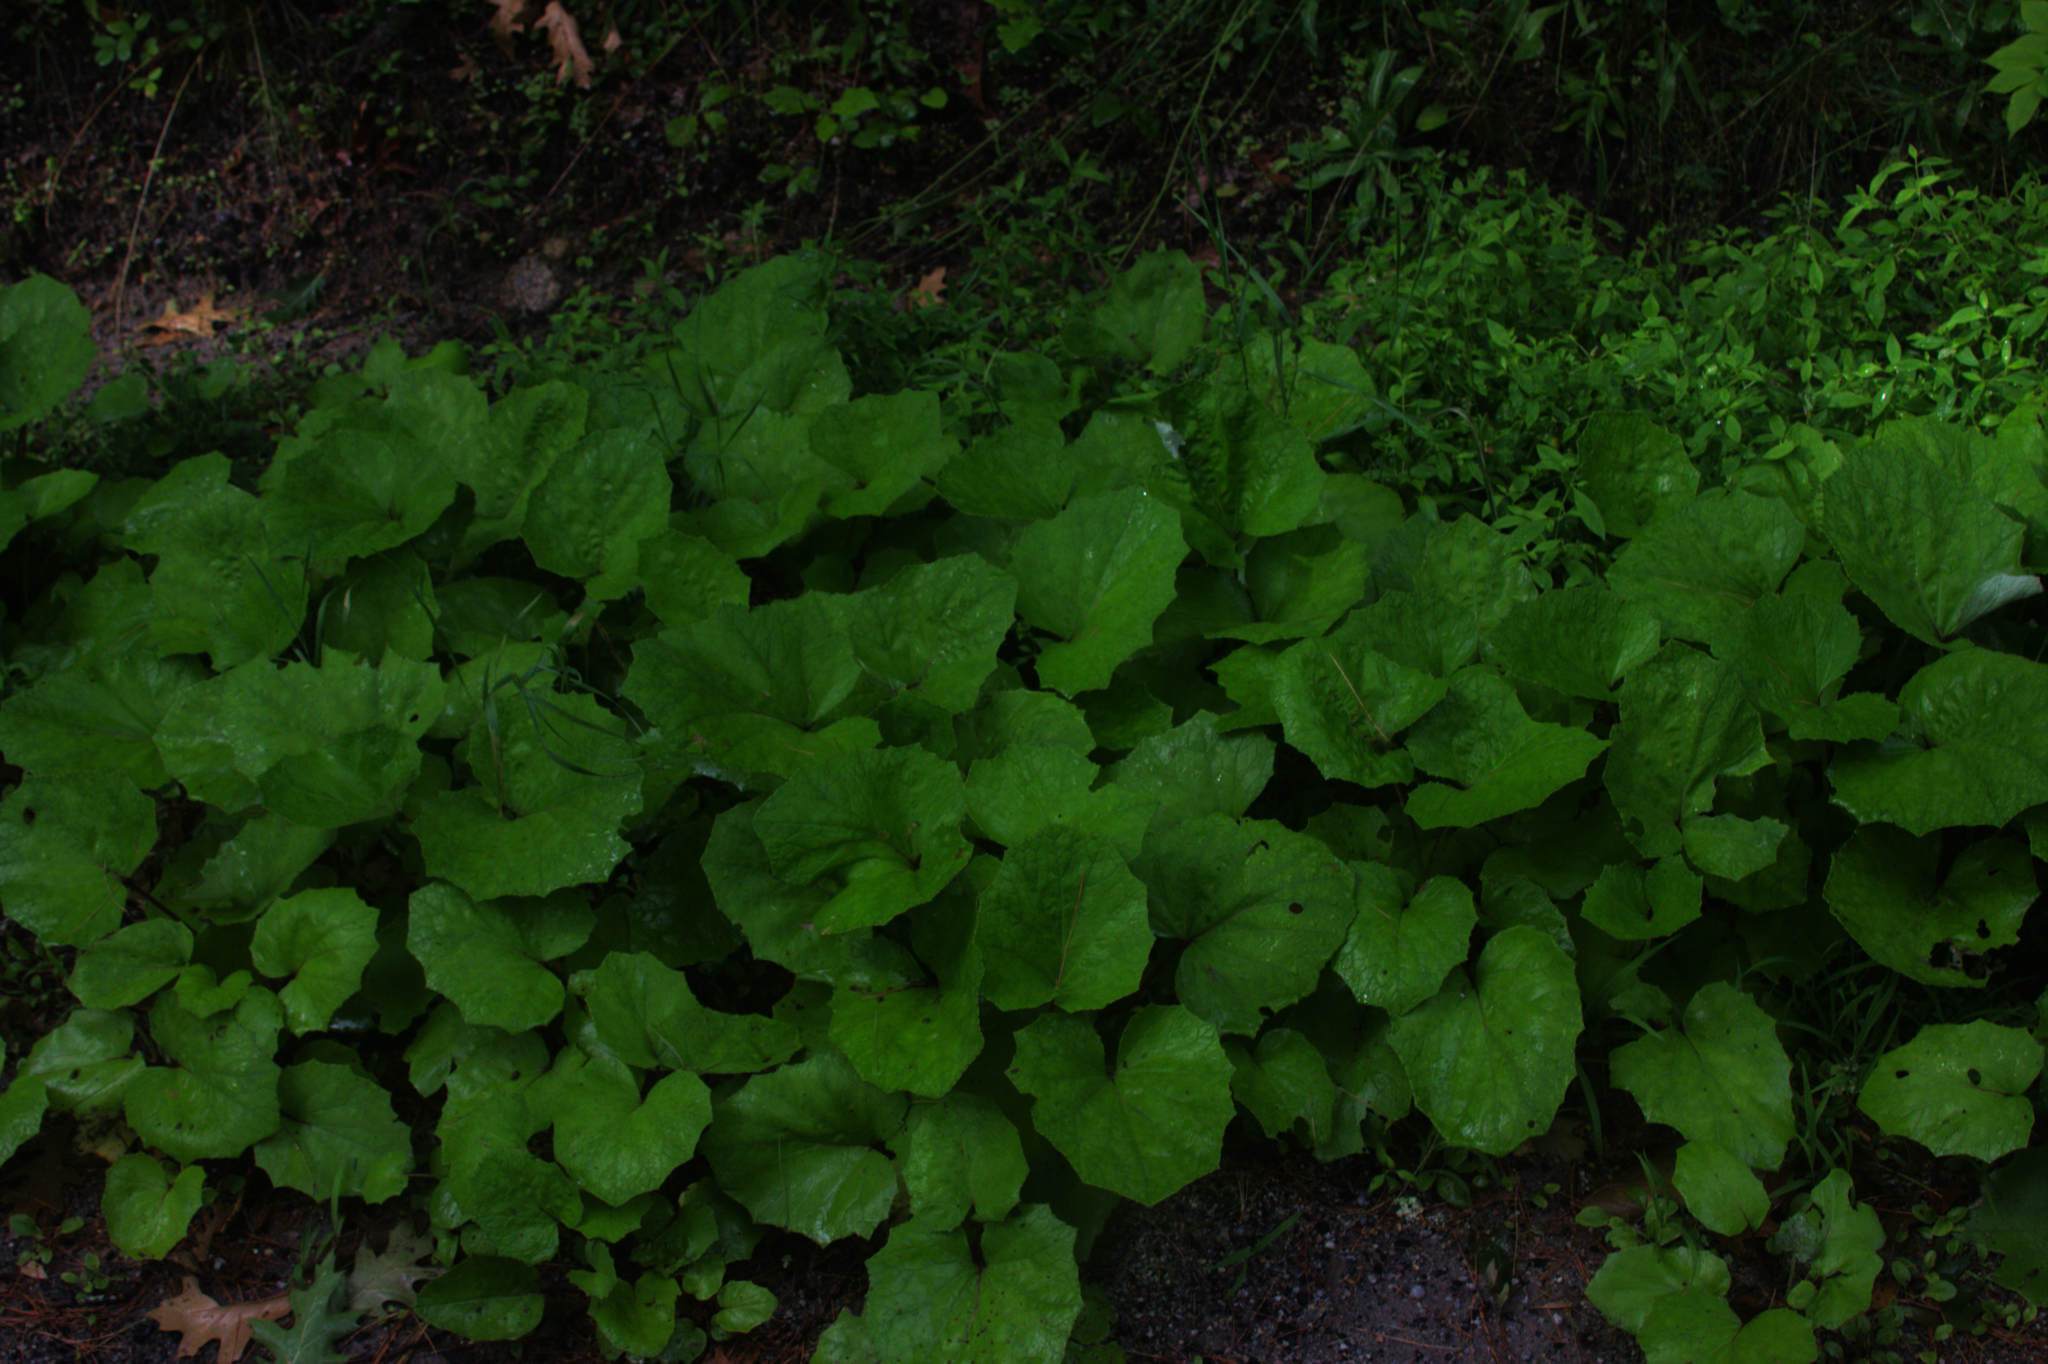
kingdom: Plantae
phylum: Tracheophyta
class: Magnoliopsida
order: Asterales
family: Asteraceae
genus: Tussilago
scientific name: Tussilago farfara
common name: Coltsfoot
